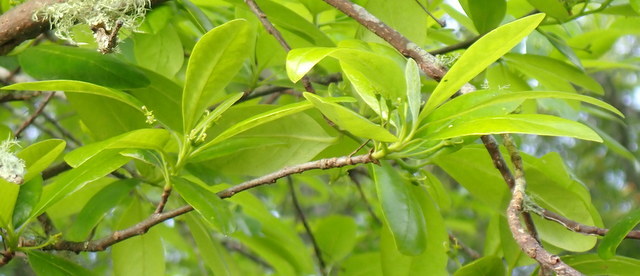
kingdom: Plantae
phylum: Tracheophyta
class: Magnoliopsida
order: Cornales
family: Nyssaceae
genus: Nyssa
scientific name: Nyssa biflora
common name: Swamp blackgum
